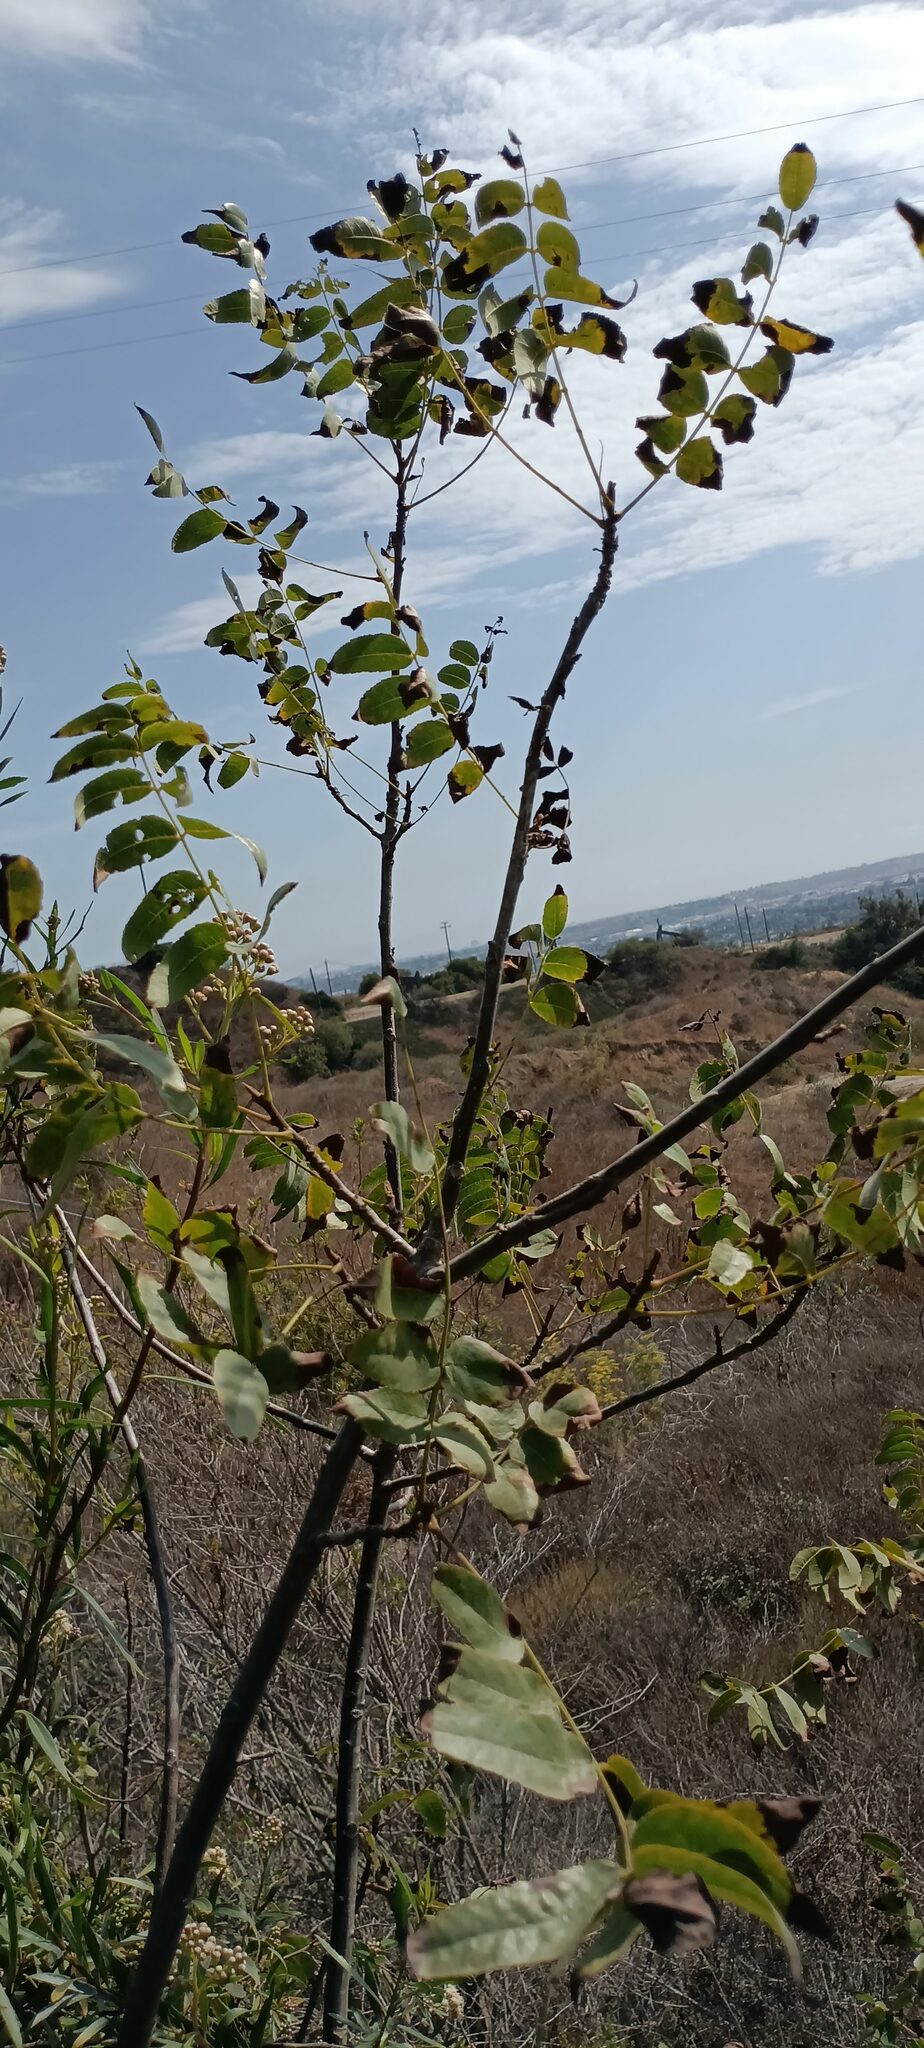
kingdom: Plantae
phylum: Tracheophyta
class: Magnoliopsida
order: Fagales
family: Juglandaceae
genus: Juglans
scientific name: Juglans californica
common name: Southern california black walnut
